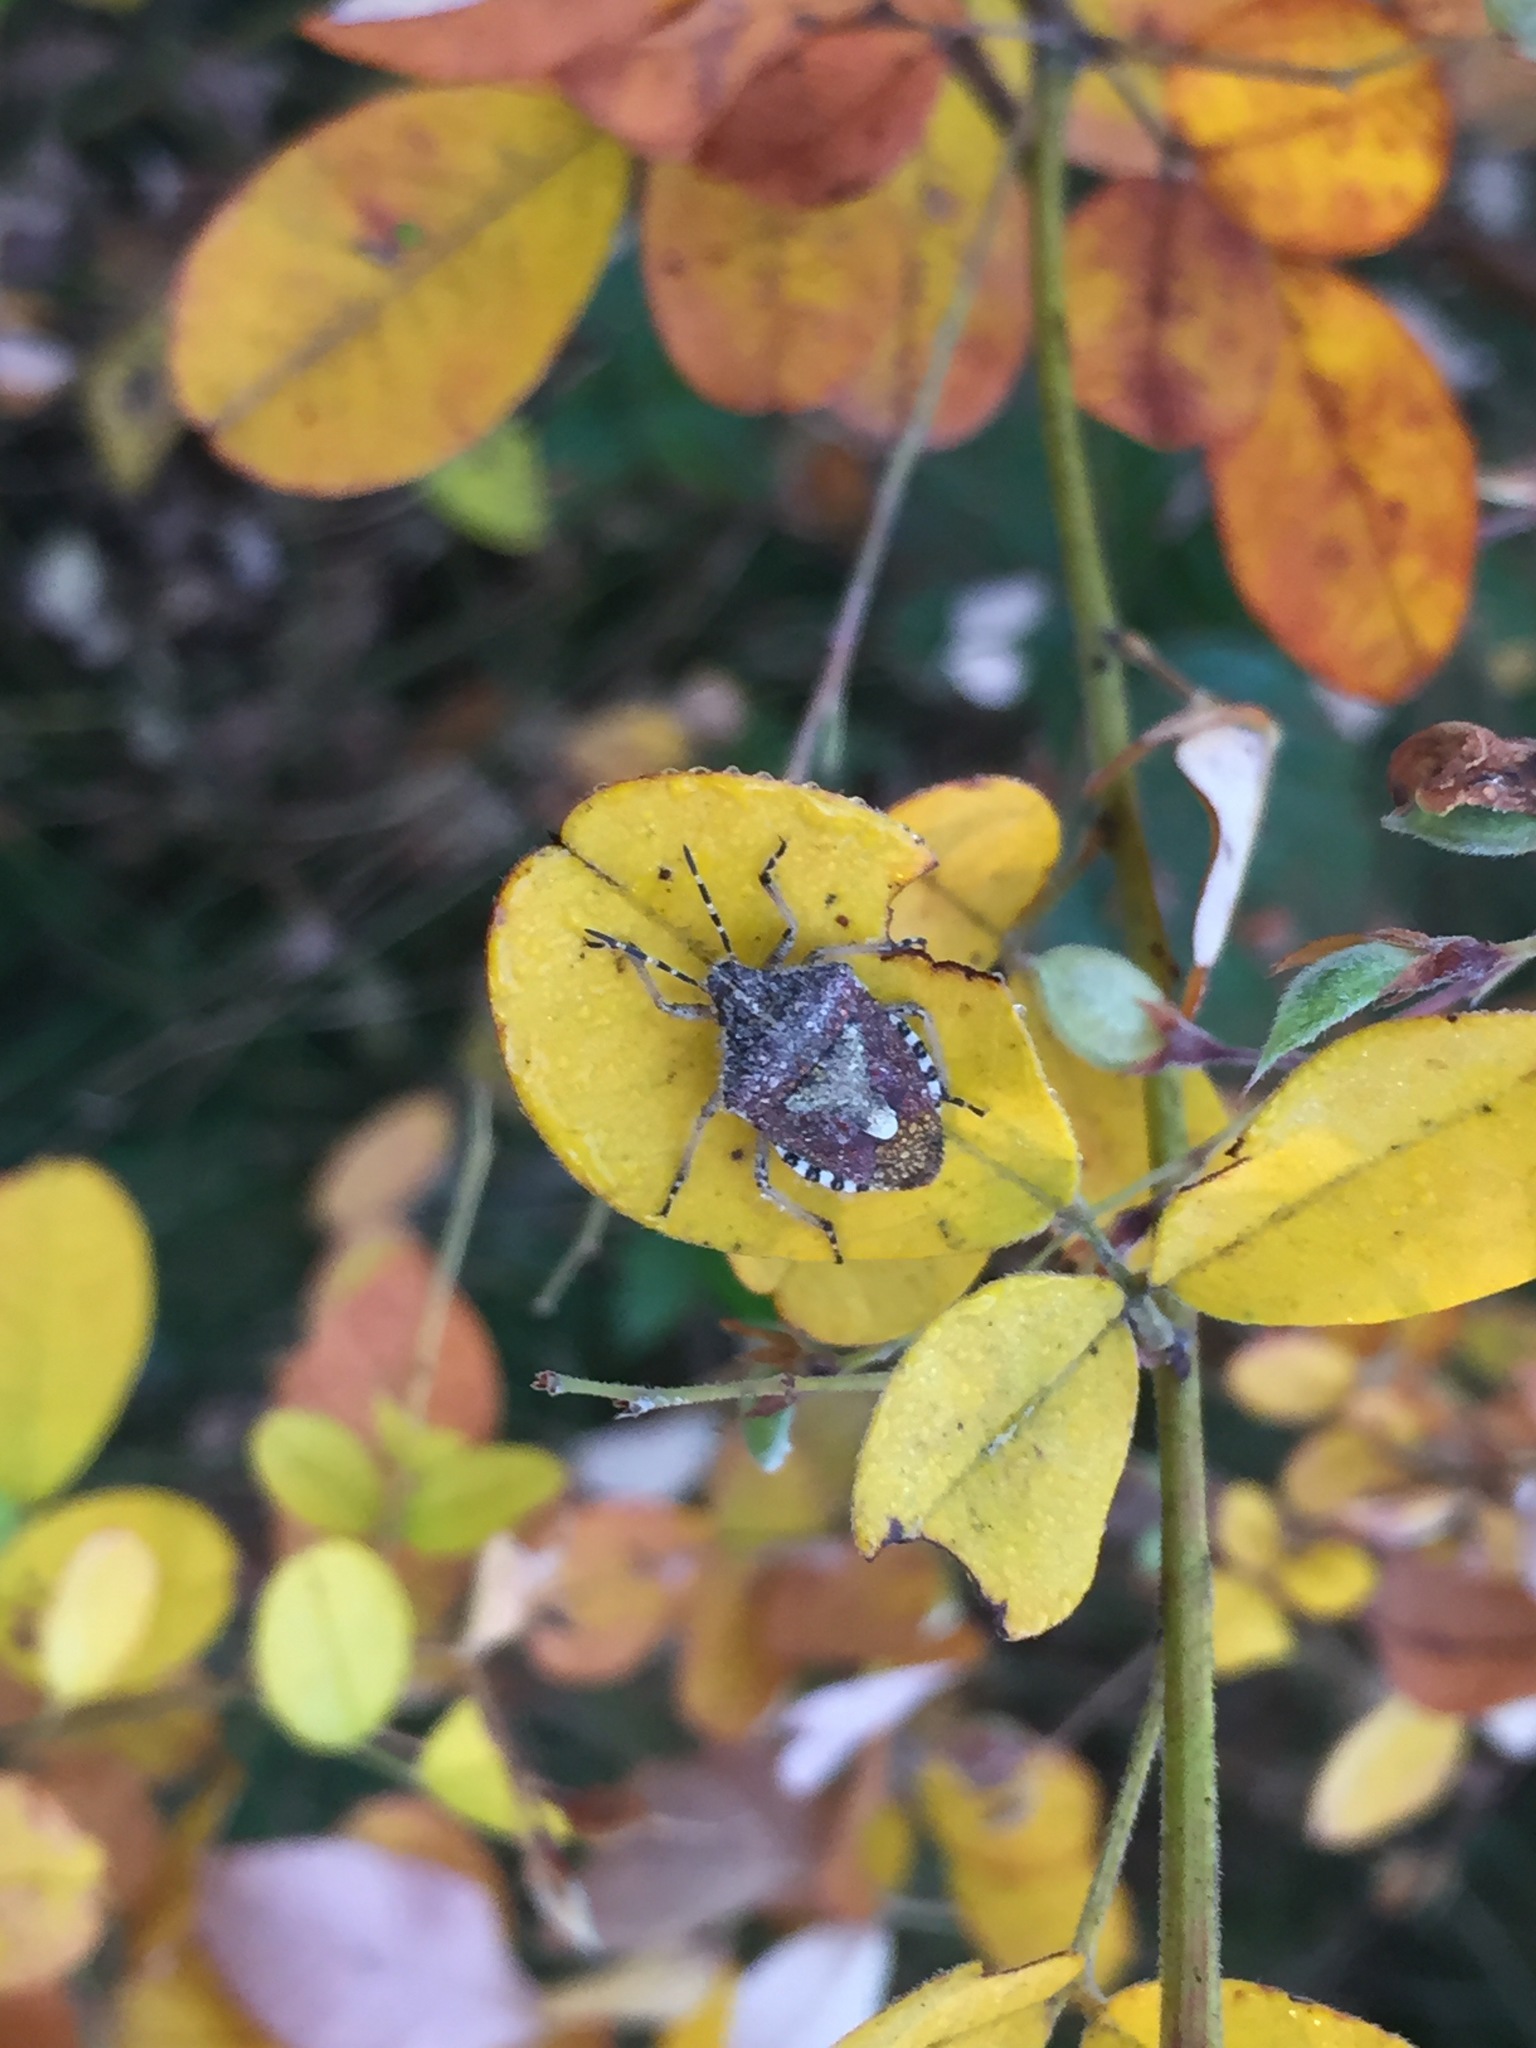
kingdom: Animalia
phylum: Arthropoda
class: Insecta
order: Hemiptera
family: Pentatomidae
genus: Dolycoris
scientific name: Dolycoris baccarum
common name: Sloe bug
